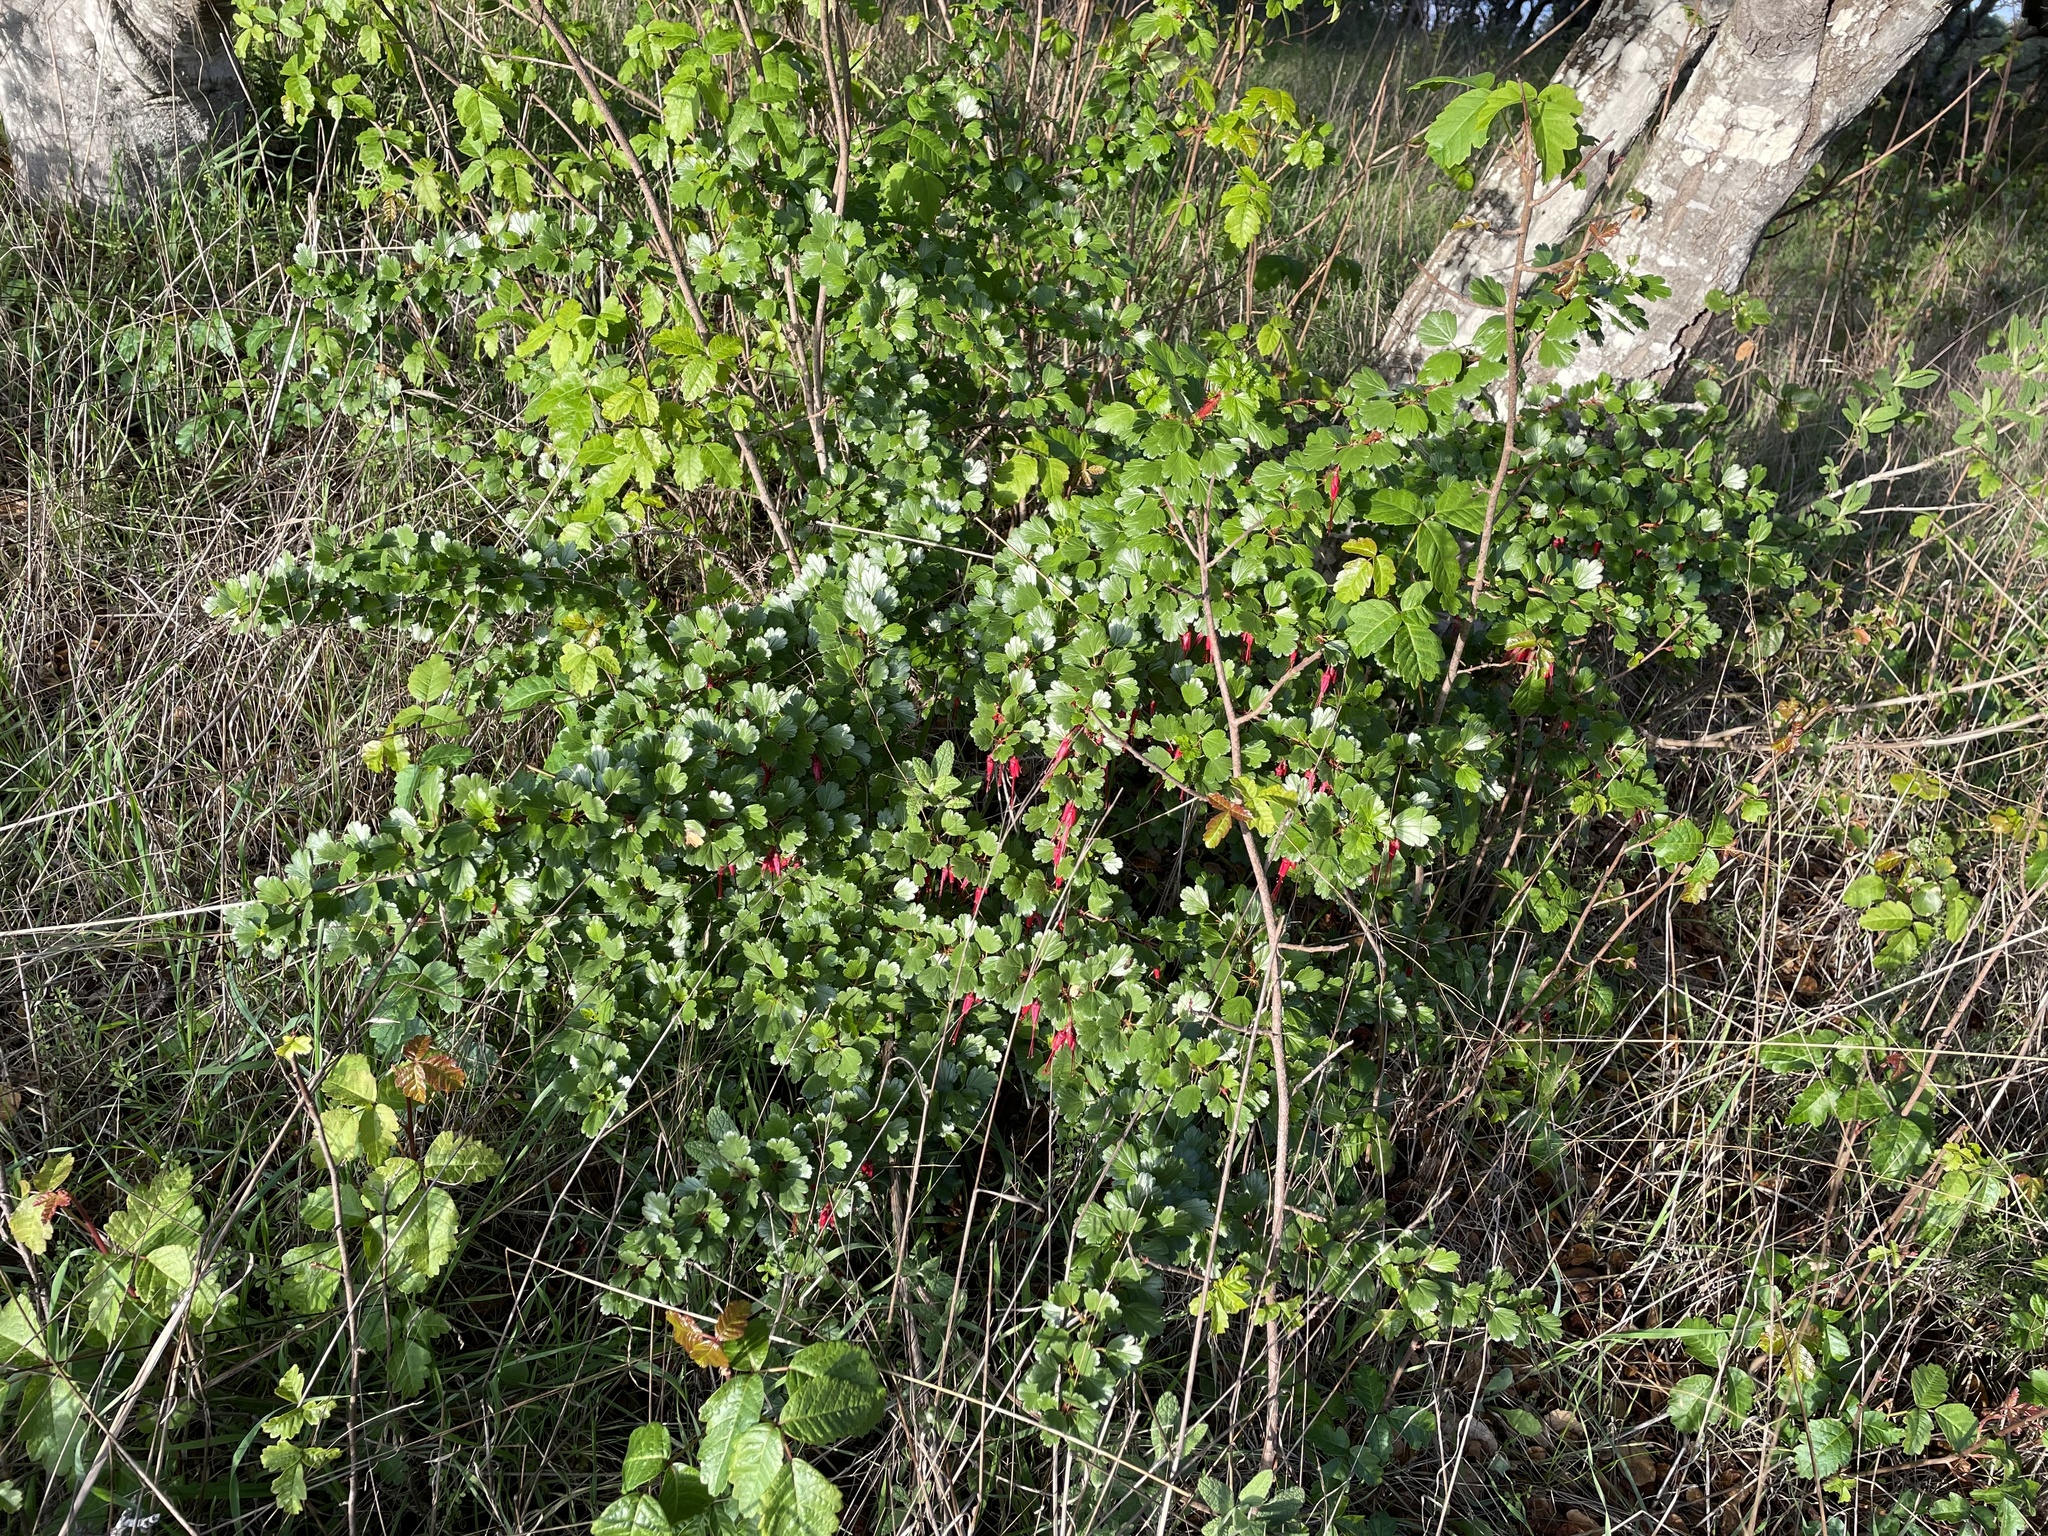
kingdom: Plantae
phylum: Tracheophyta
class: Magnoliopsida
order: Saxifragales
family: Grossulariaceae
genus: Ribes
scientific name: Ribes speciosum
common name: Fuchsia-flower gooseberry
